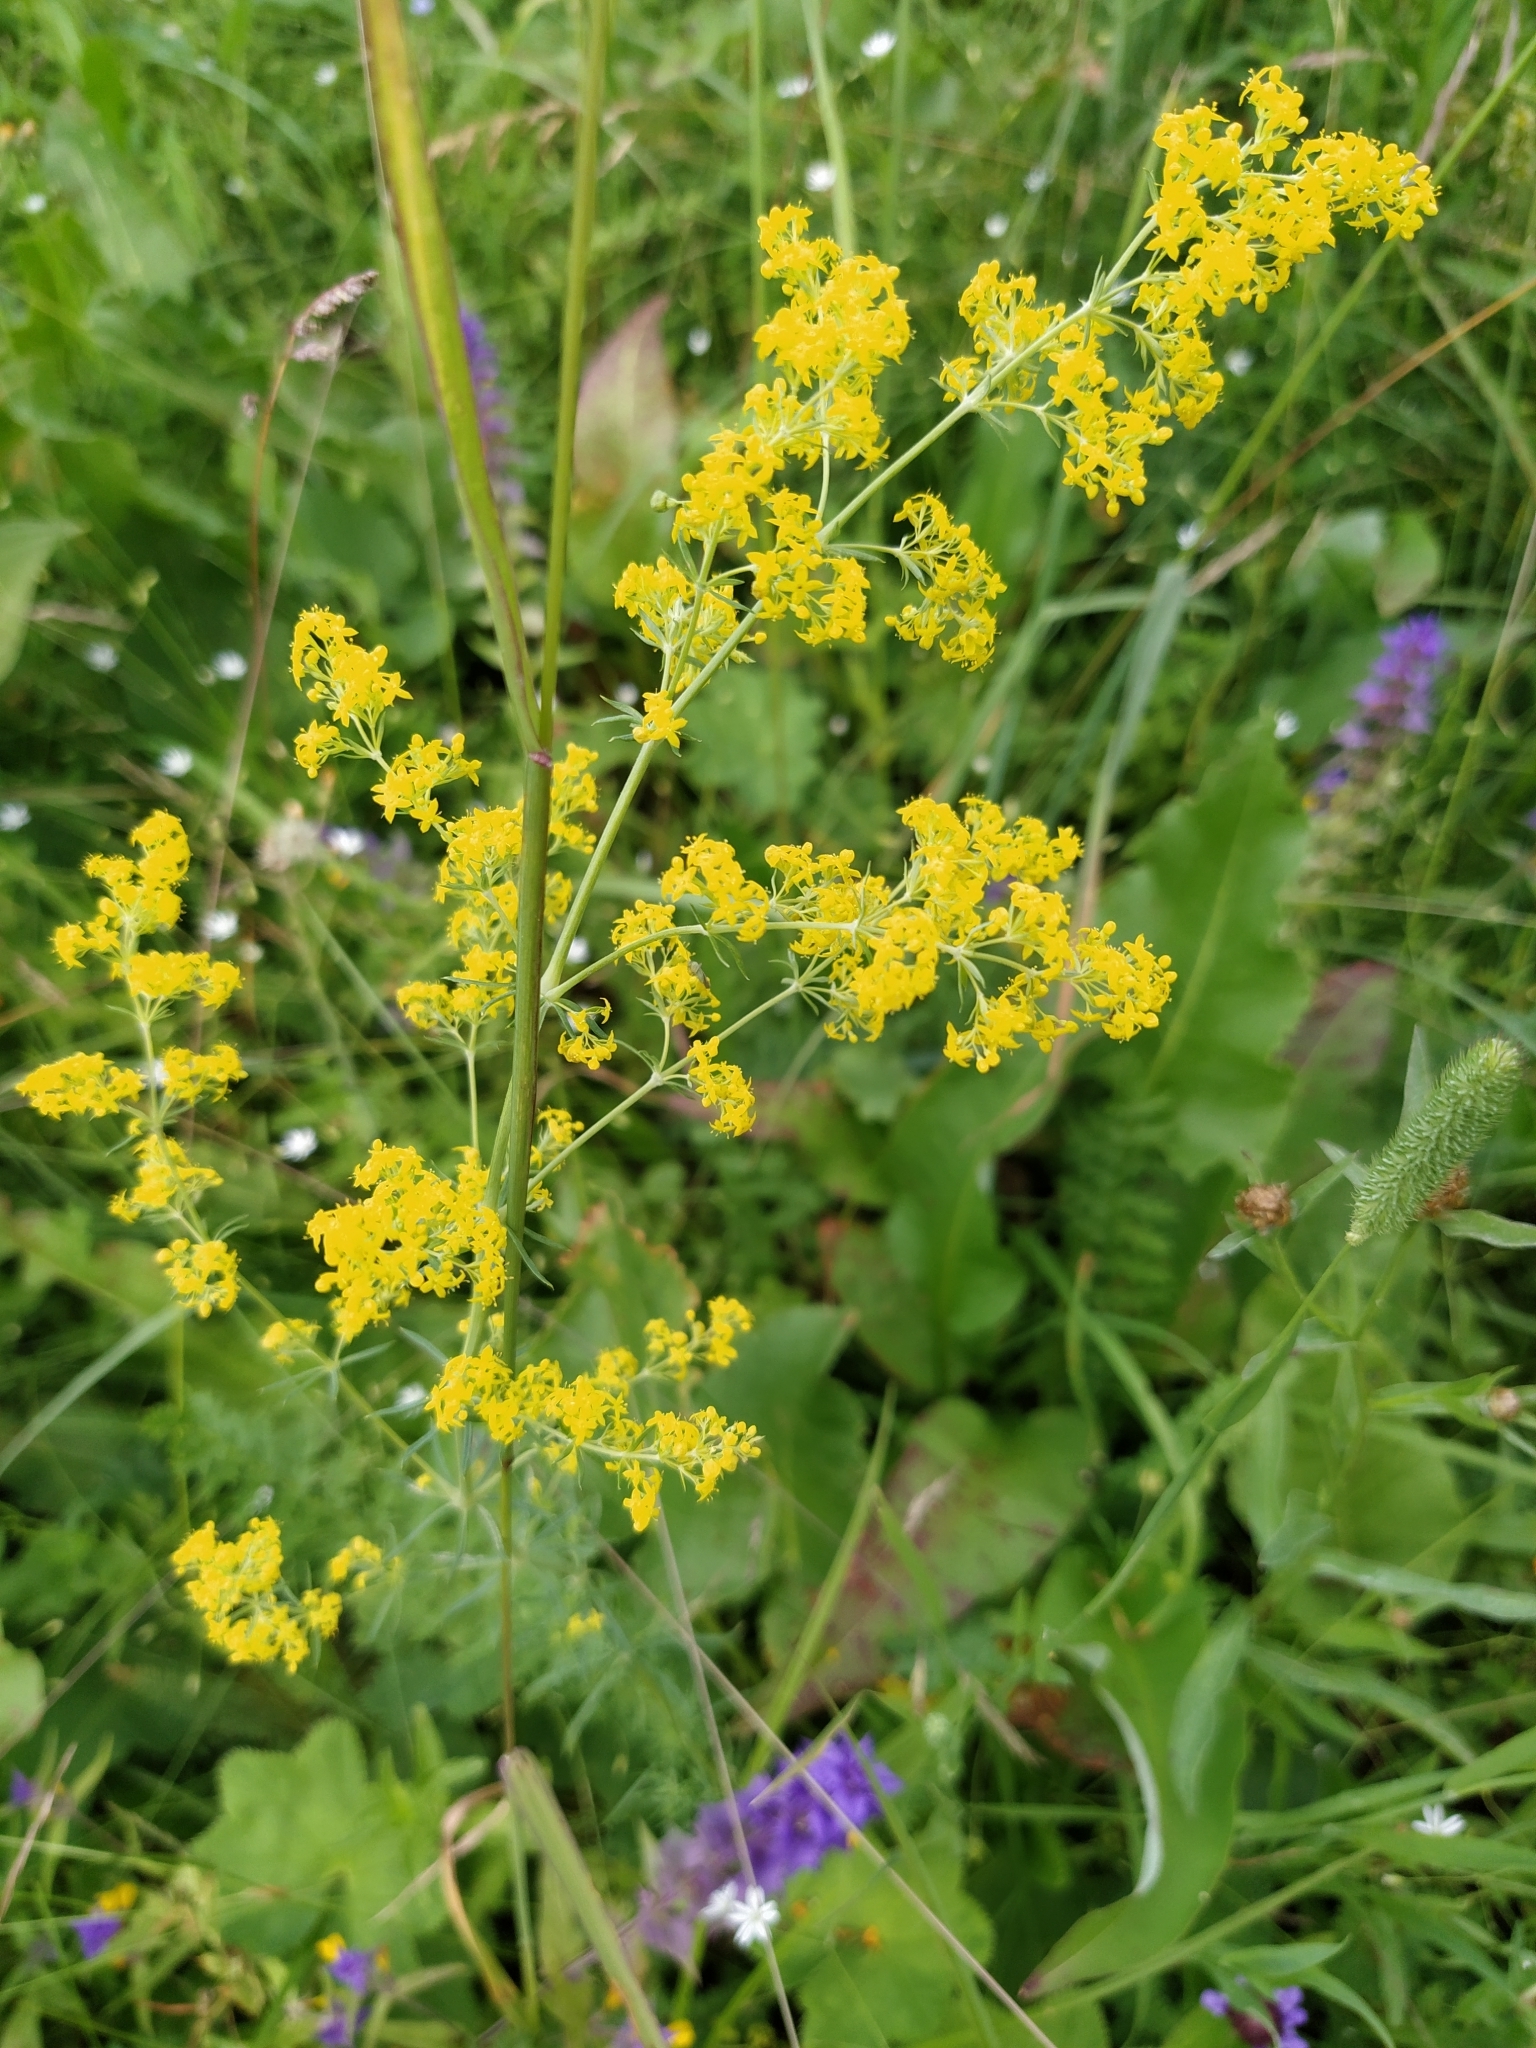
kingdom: Plantae
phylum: Tracheophyta
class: Magnoliopsida
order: Gentianales
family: Rubiaceae
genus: Galium
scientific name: Galium verum
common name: Lady's bedstraw
